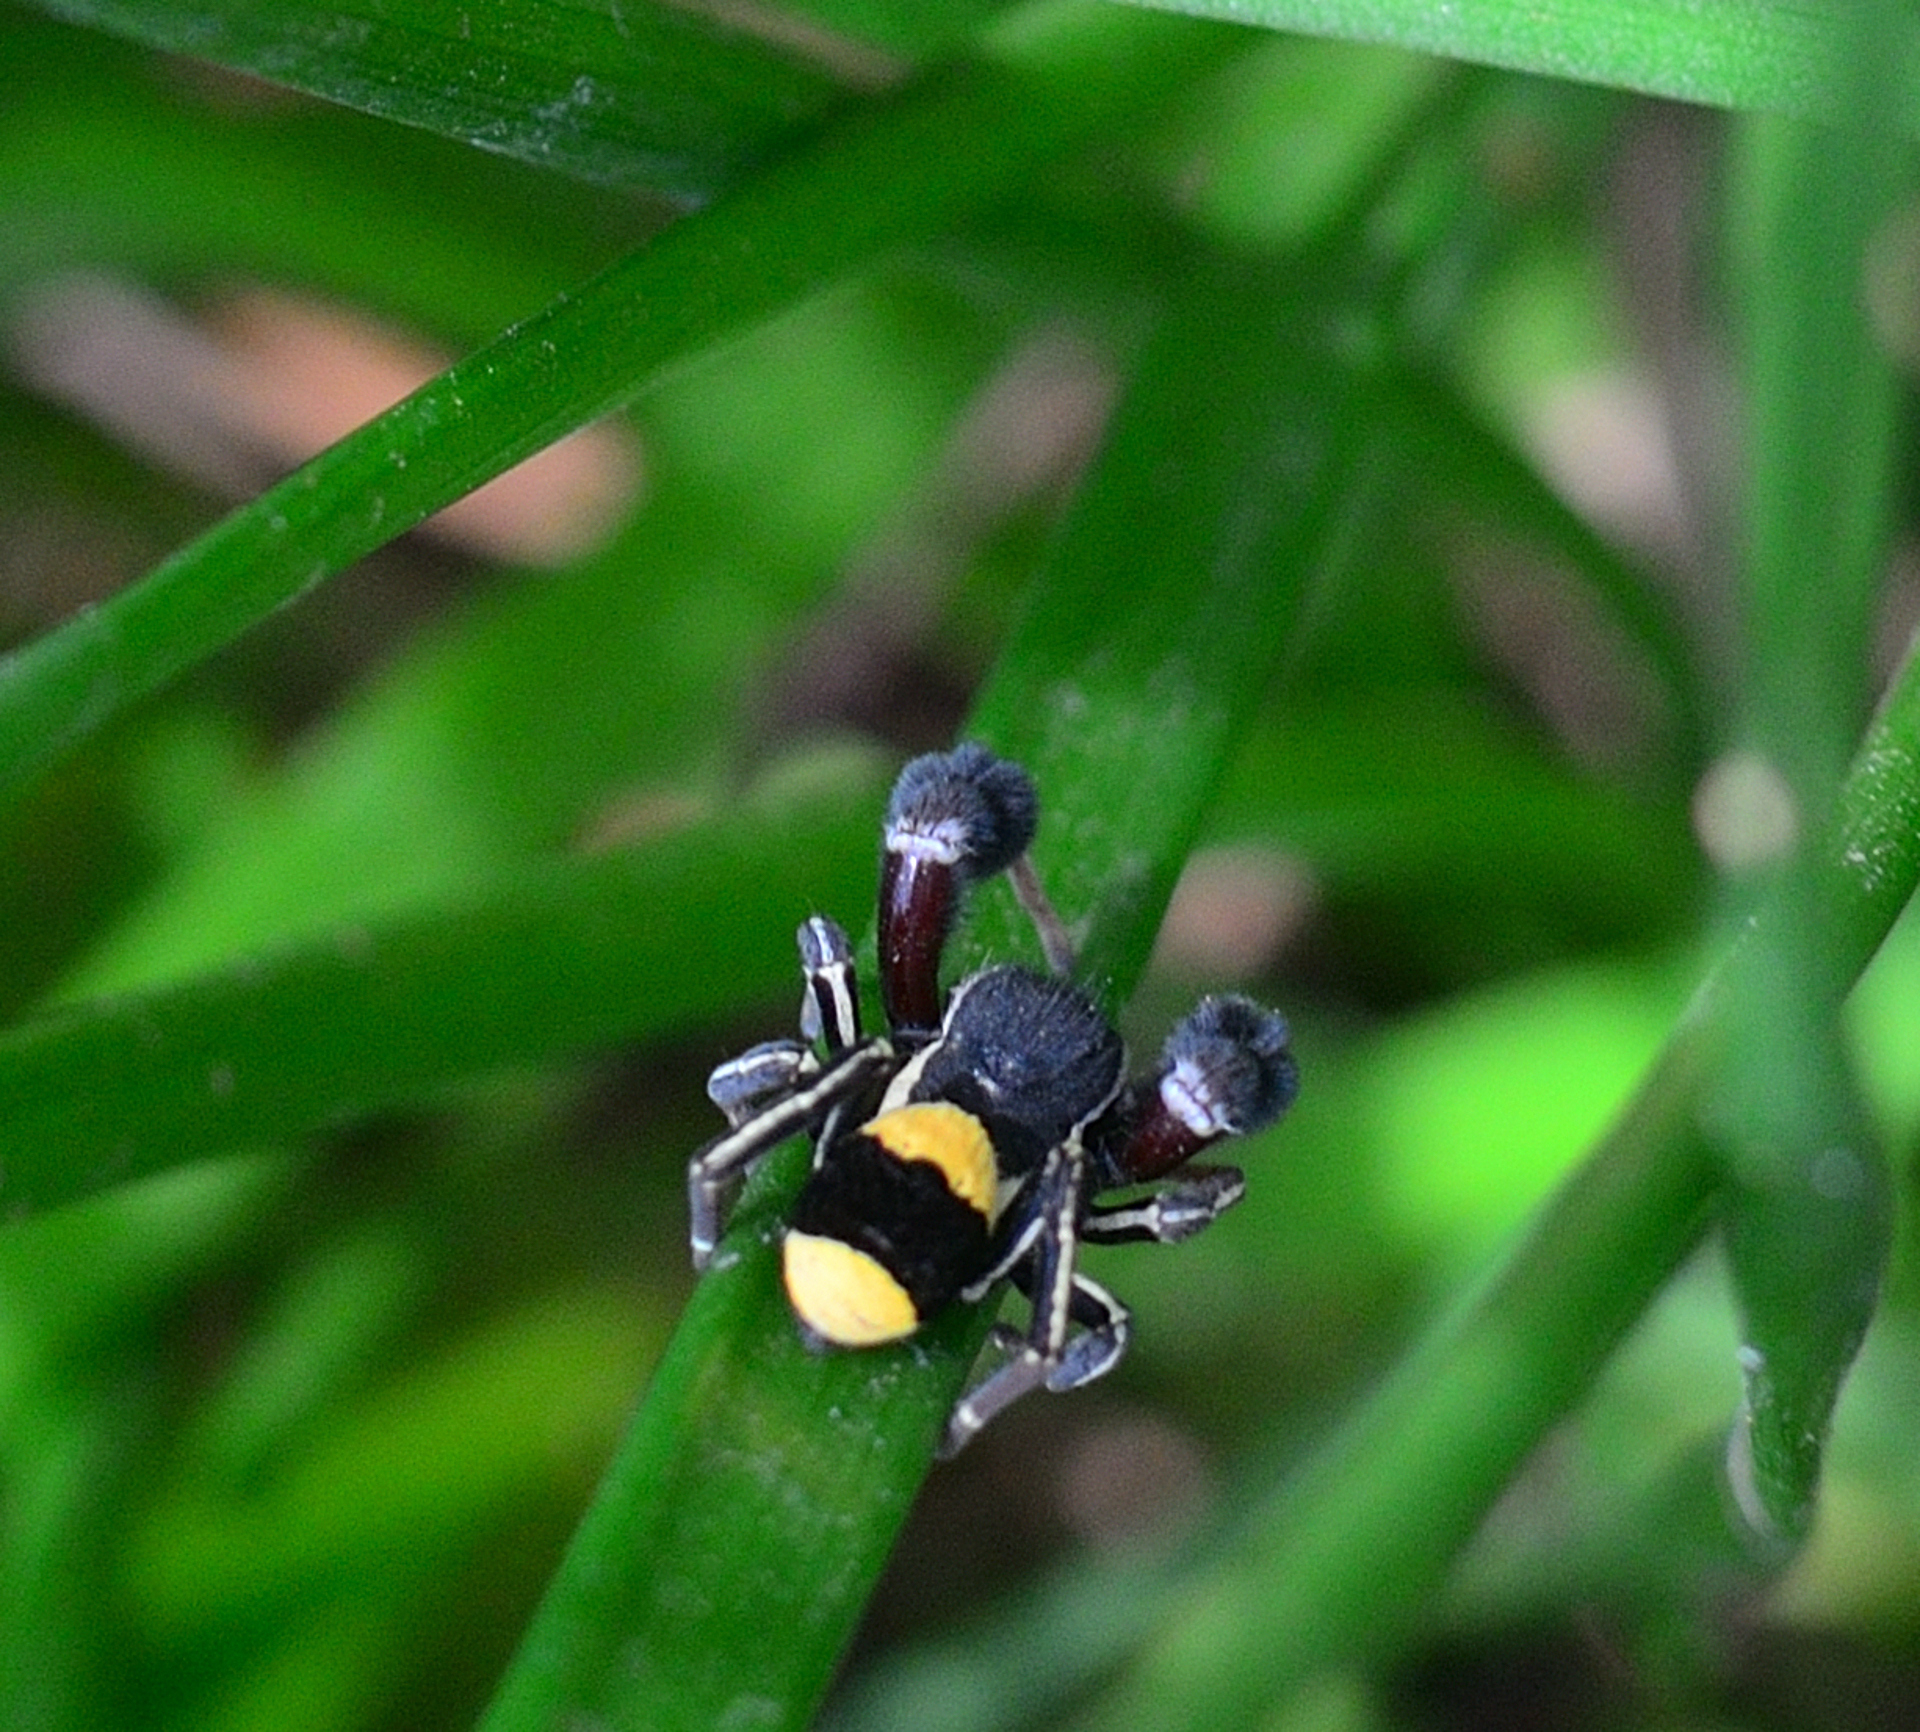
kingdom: Animalia
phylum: Arthropoda
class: Arachnida
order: Araneae
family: Eresidae
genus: Stegodyphus
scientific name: Stegodyphus tibialis
